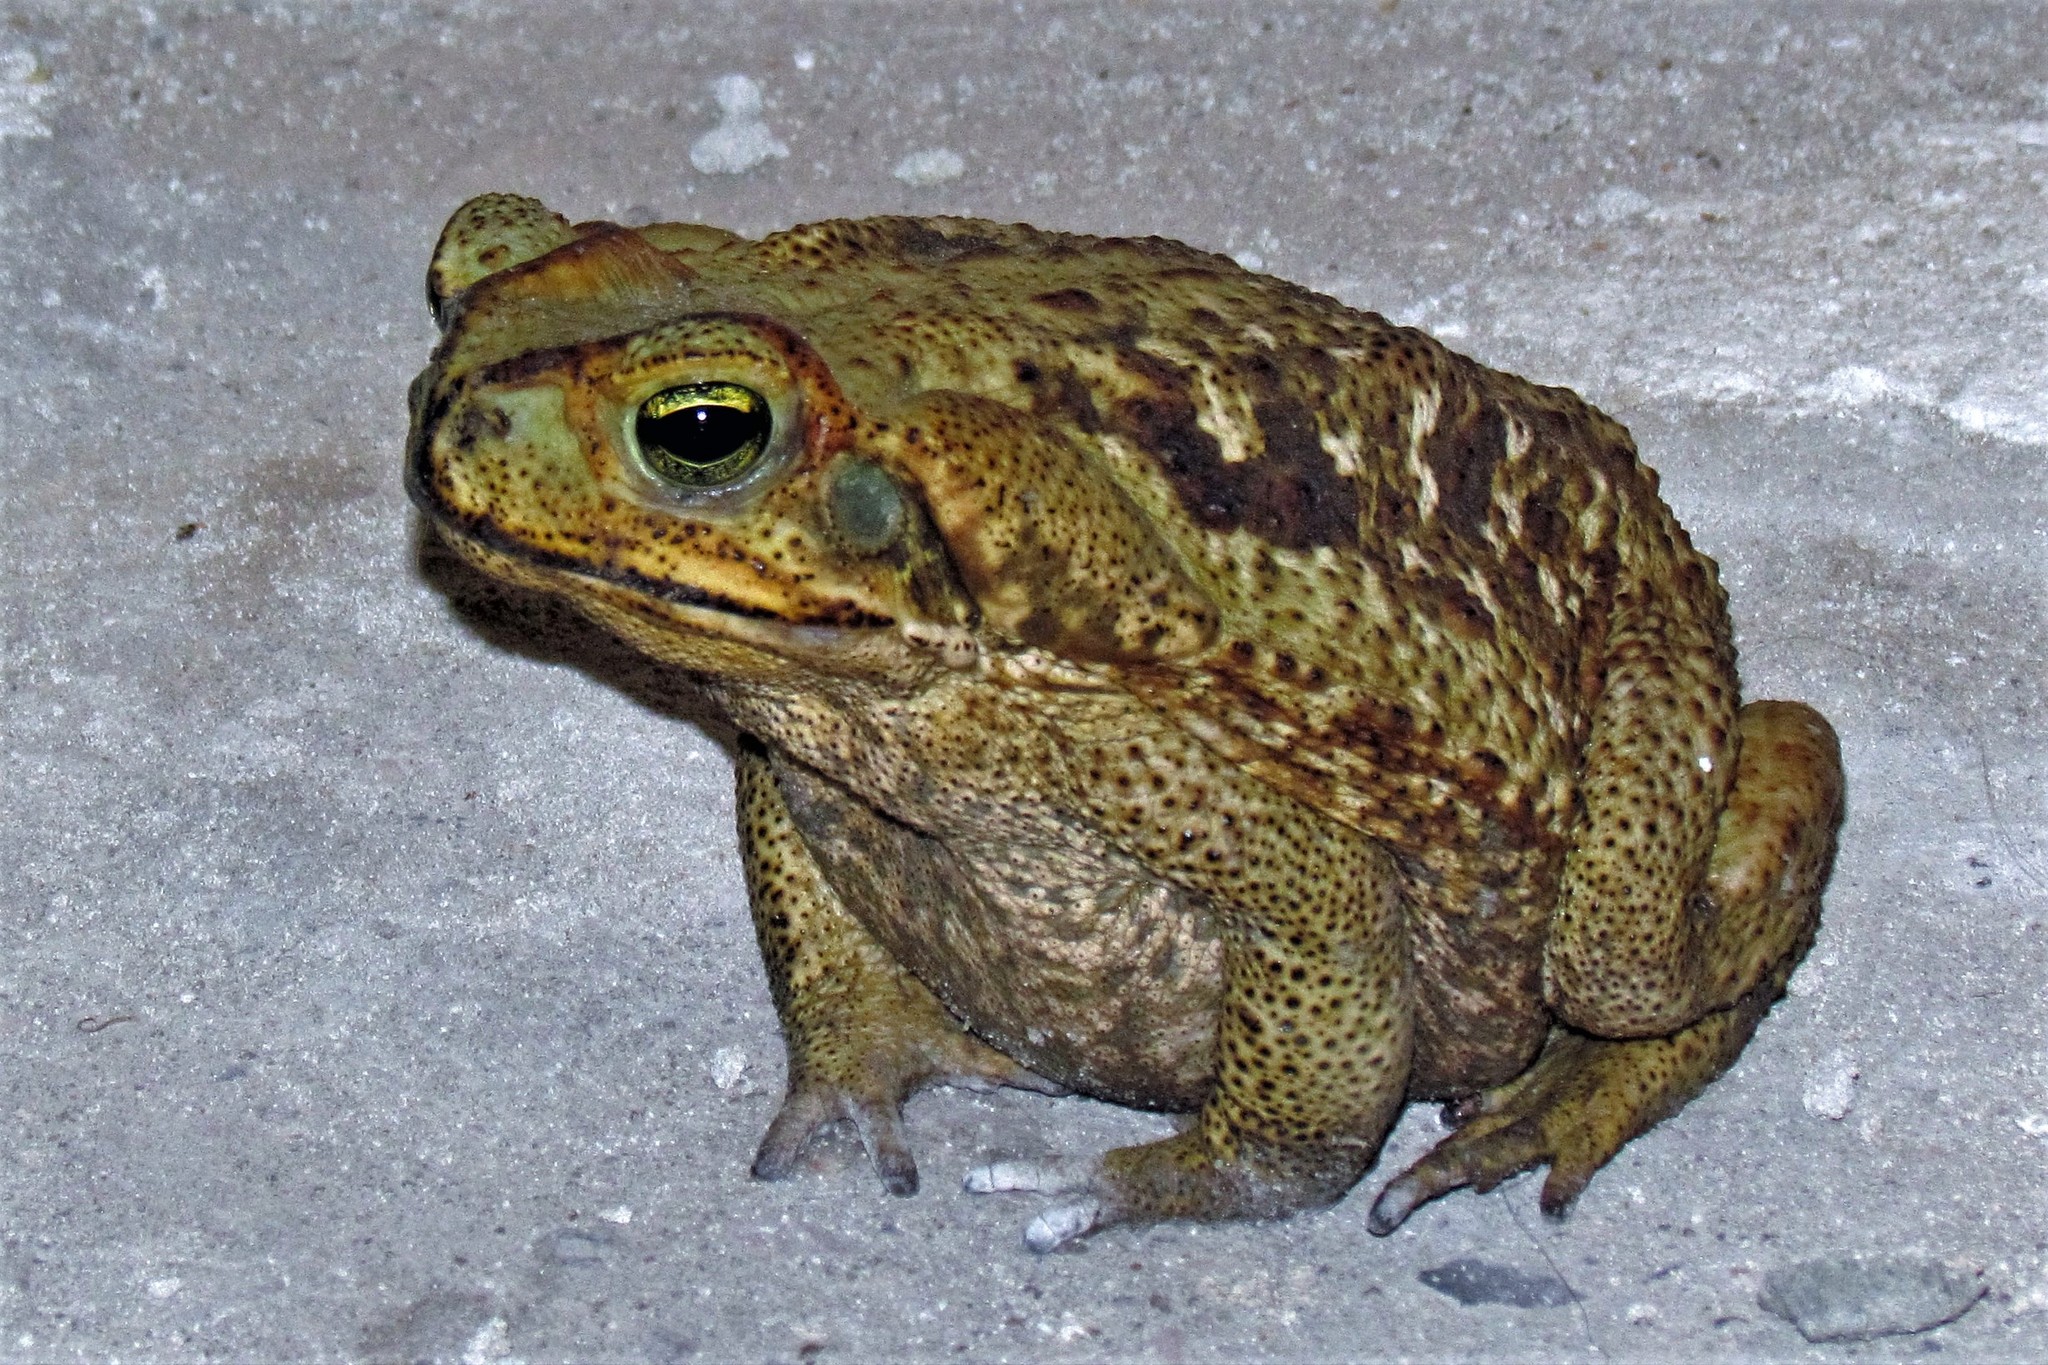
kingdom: Animalia
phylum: Chordata
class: Amphibia
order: Anura
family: Bufonidae
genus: Rhinella
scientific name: Rhinella diptycha
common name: Cope's toad
